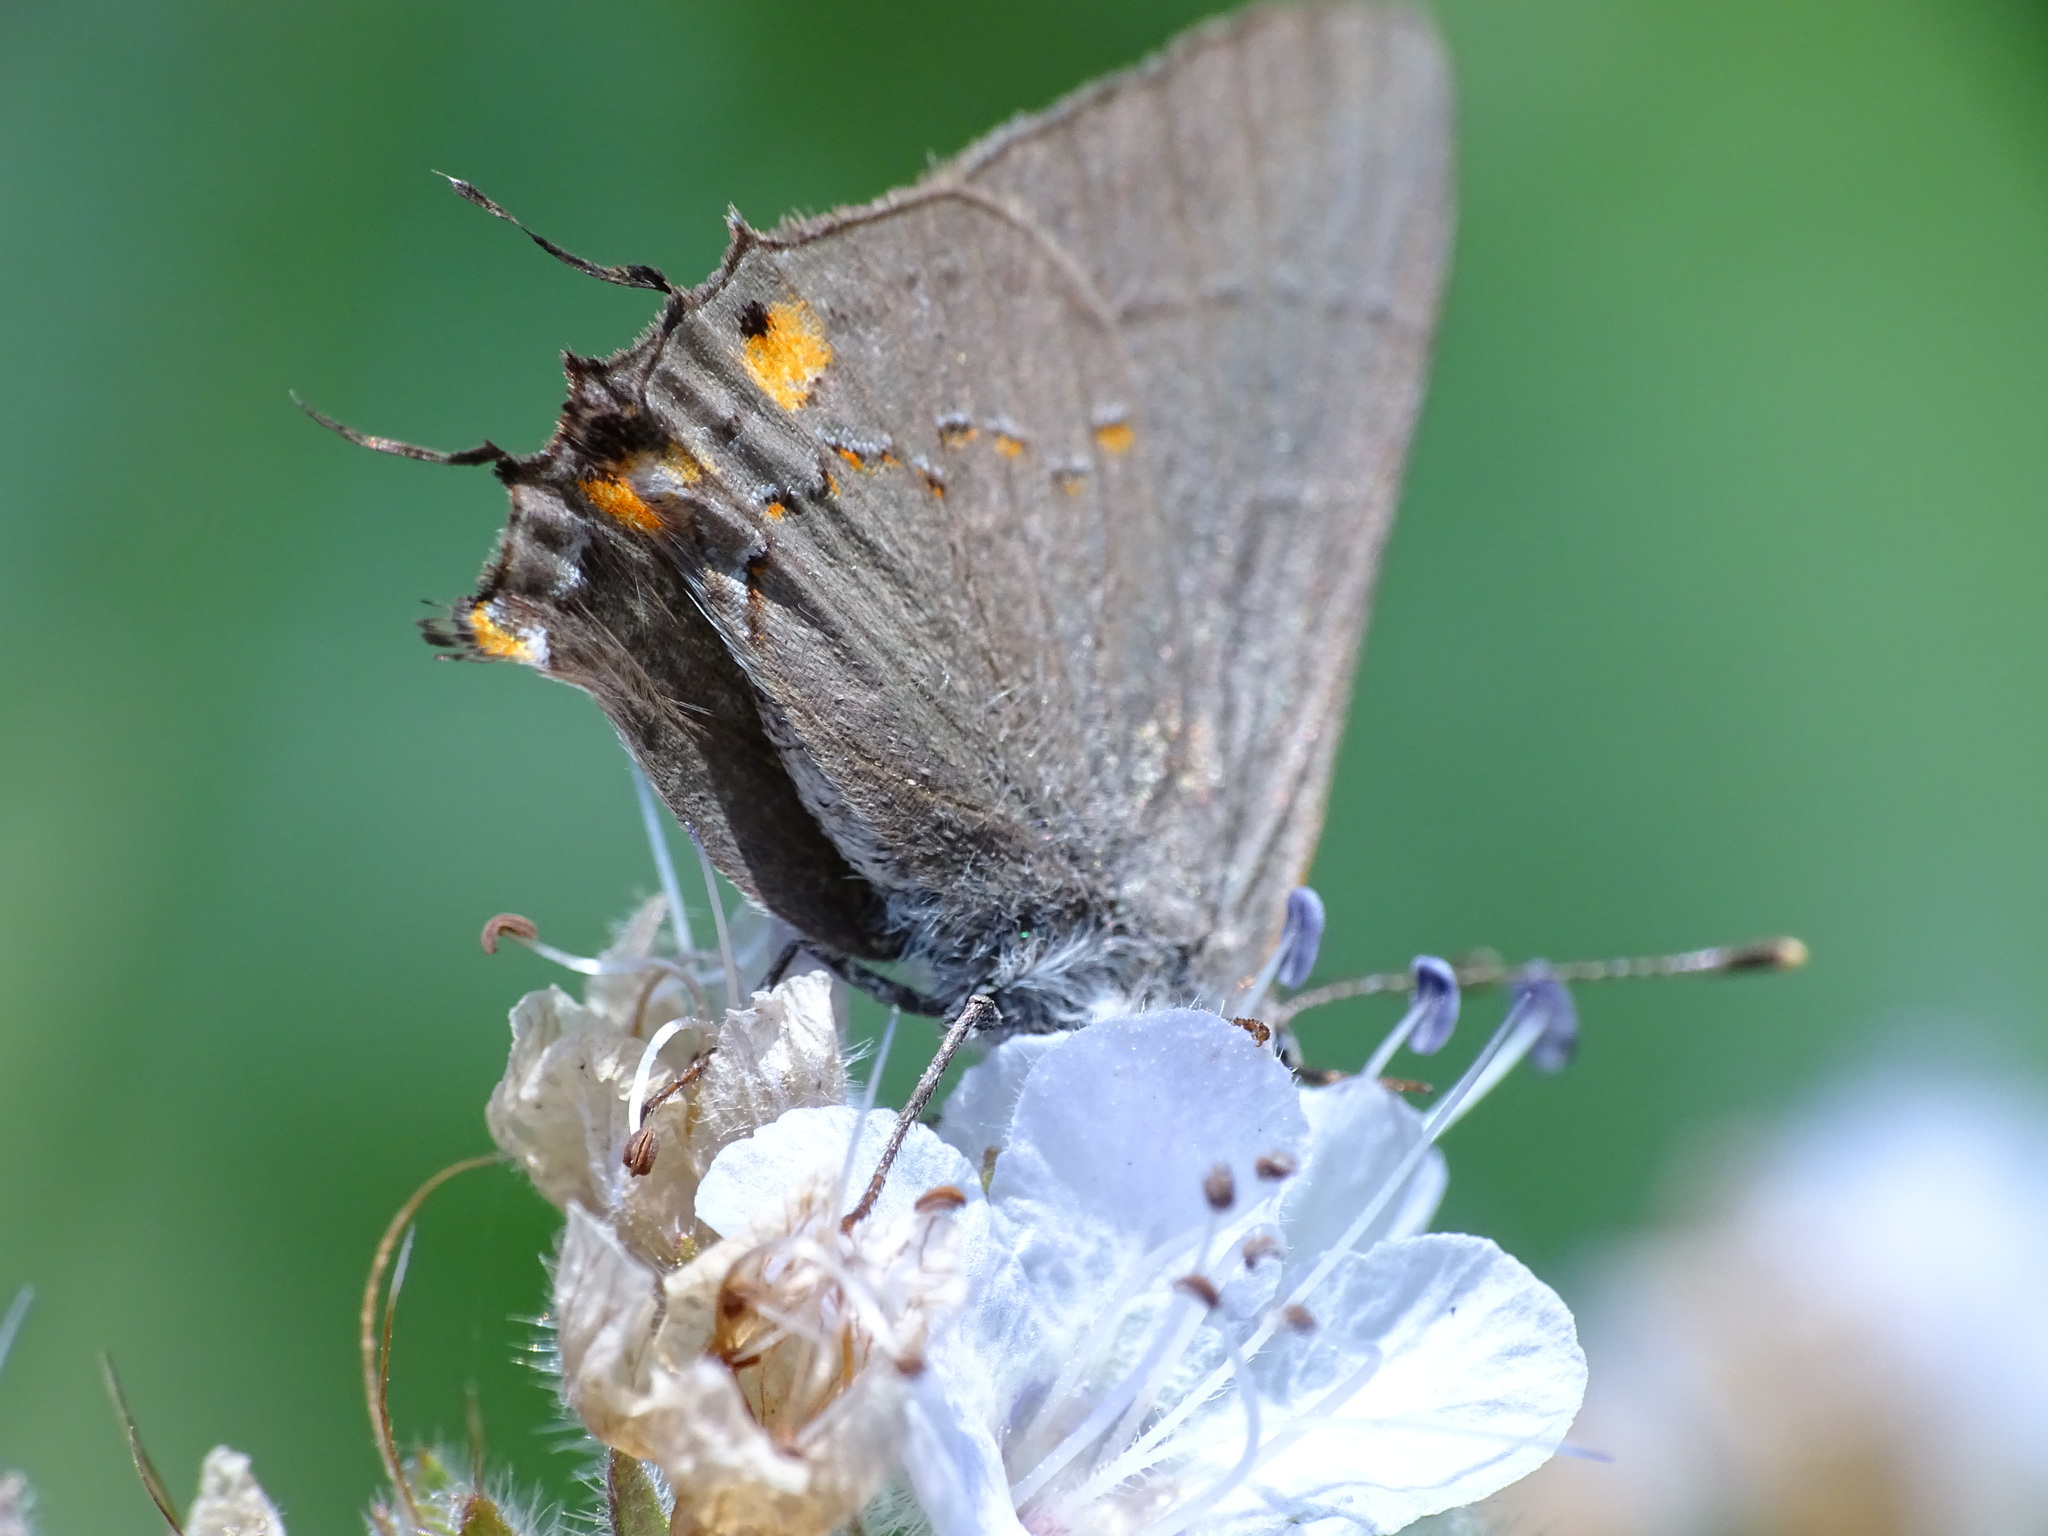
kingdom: Animalia
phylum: Arthropoda
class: Insecta
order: Lepidoptera
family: Lycaenidae
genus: Strymon
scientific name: Strymon melinus
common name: Gray hairstreak
